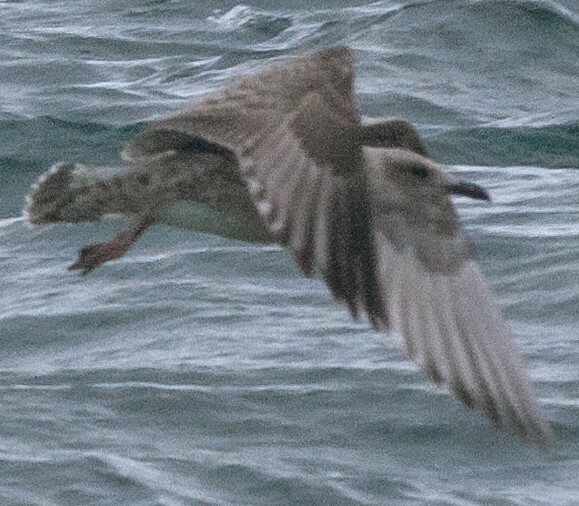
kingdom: Animalia
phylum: Chordata
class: Aves
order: Charadriiformes
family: Laridae
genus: Larus
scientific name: Larus argentatus
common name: Herring gull
